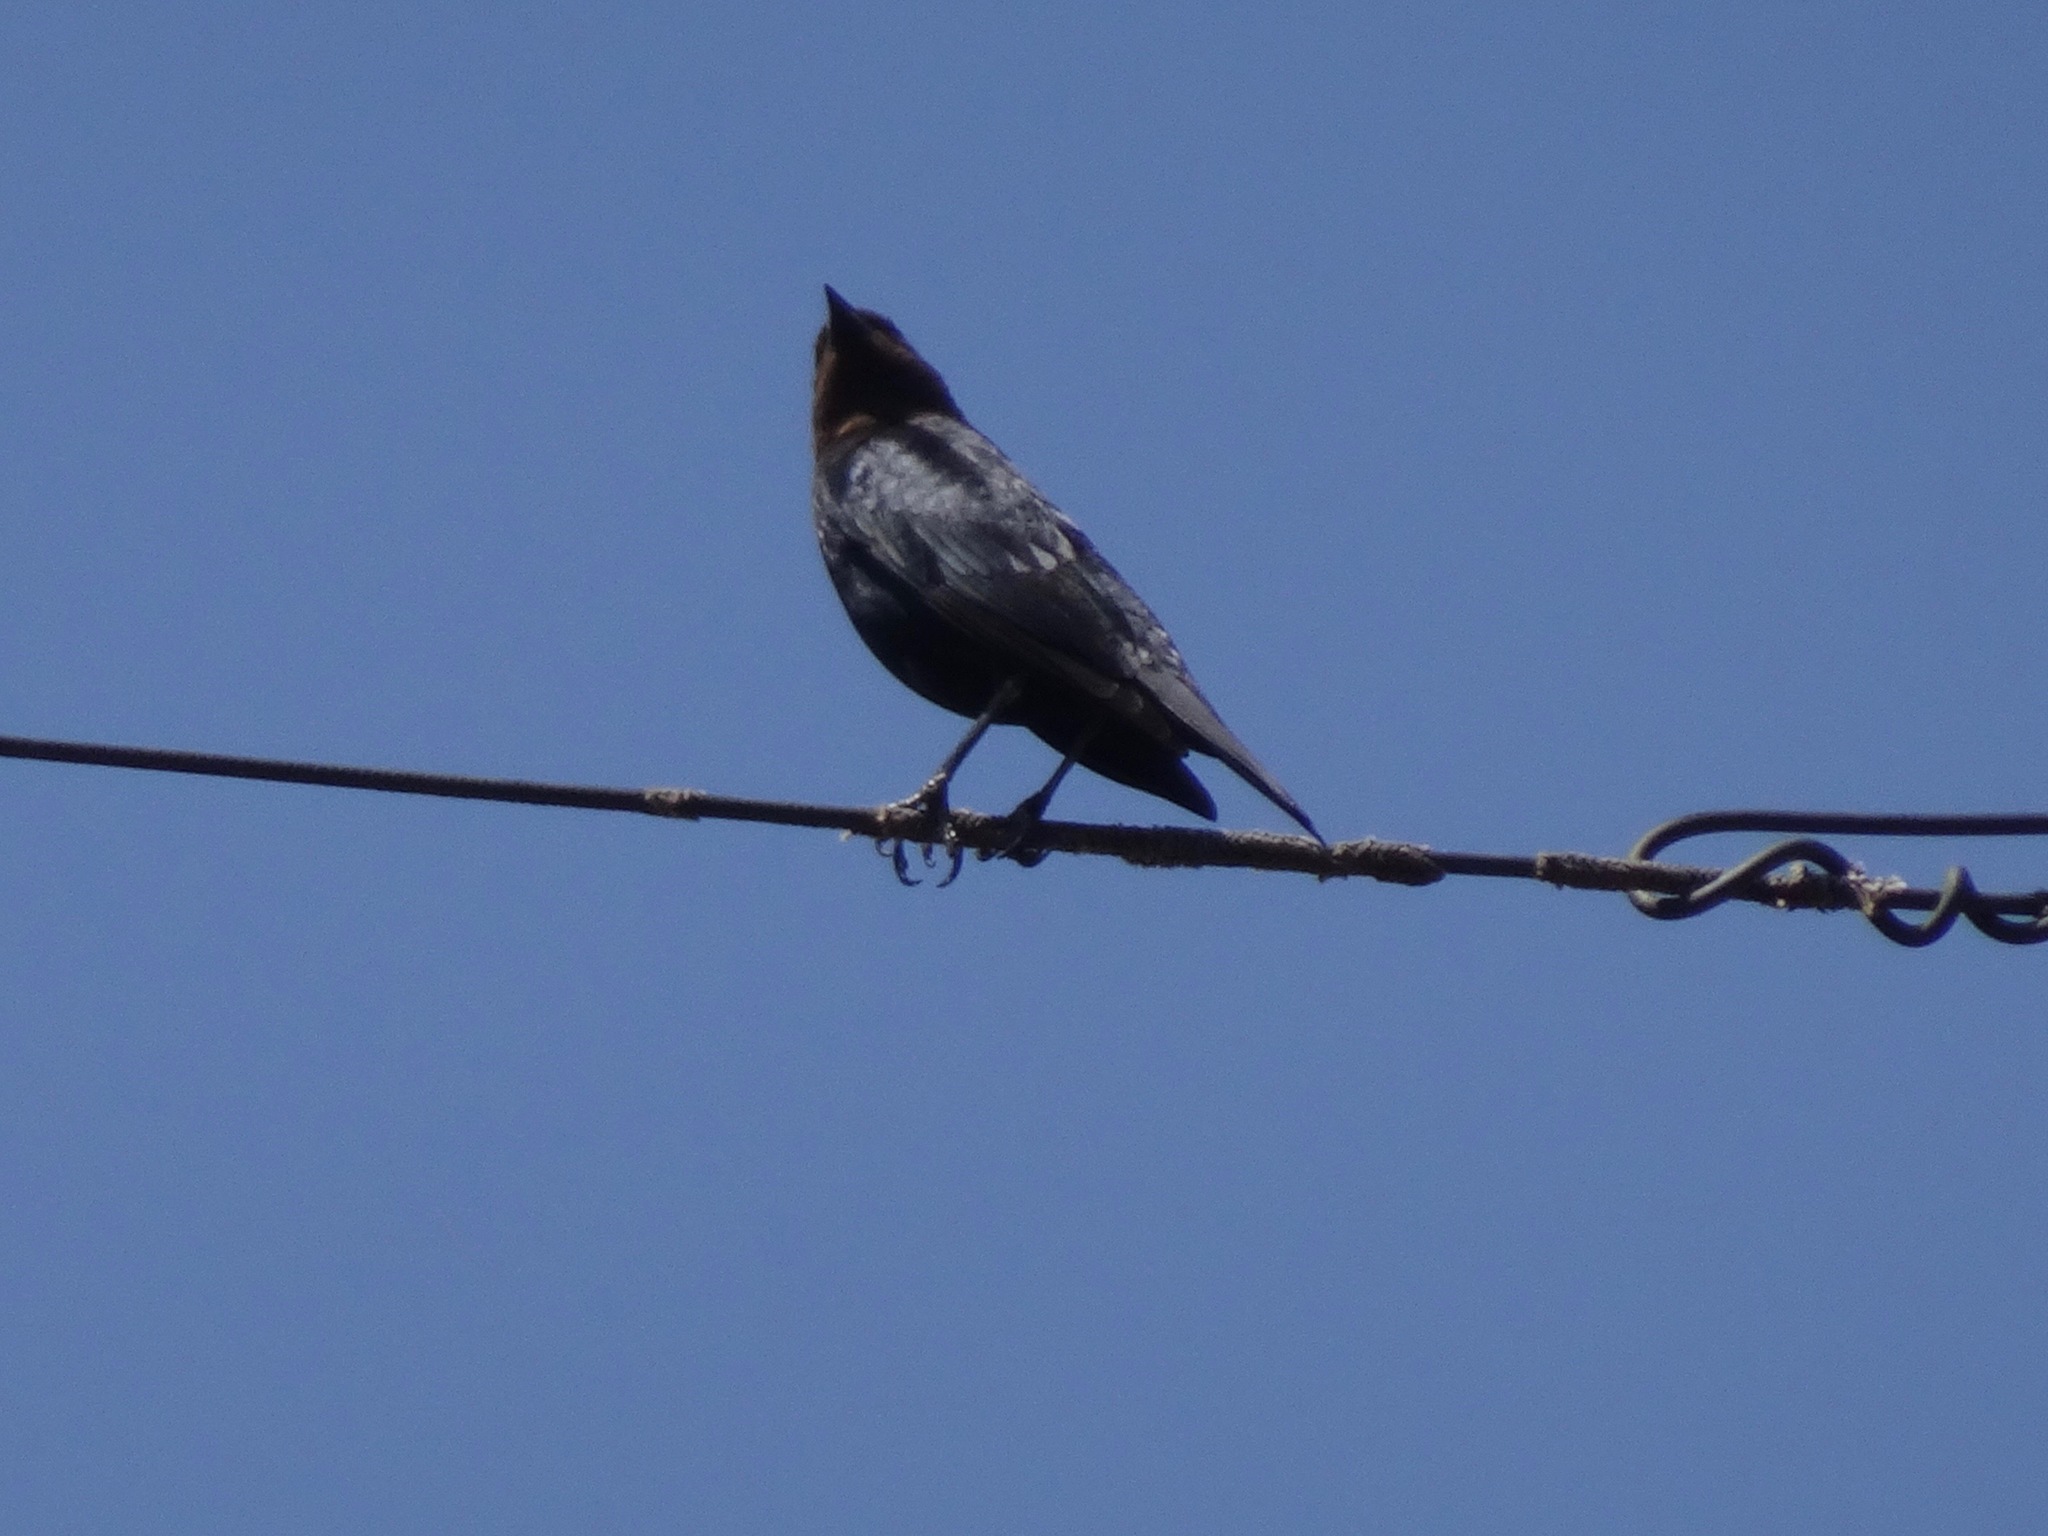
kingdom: Animalia
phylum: Chordata
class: Aves
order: Passeriformes
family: Icteridae
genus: Molothrus
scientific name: Molothrus ater
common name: Brown-headed cowbird
